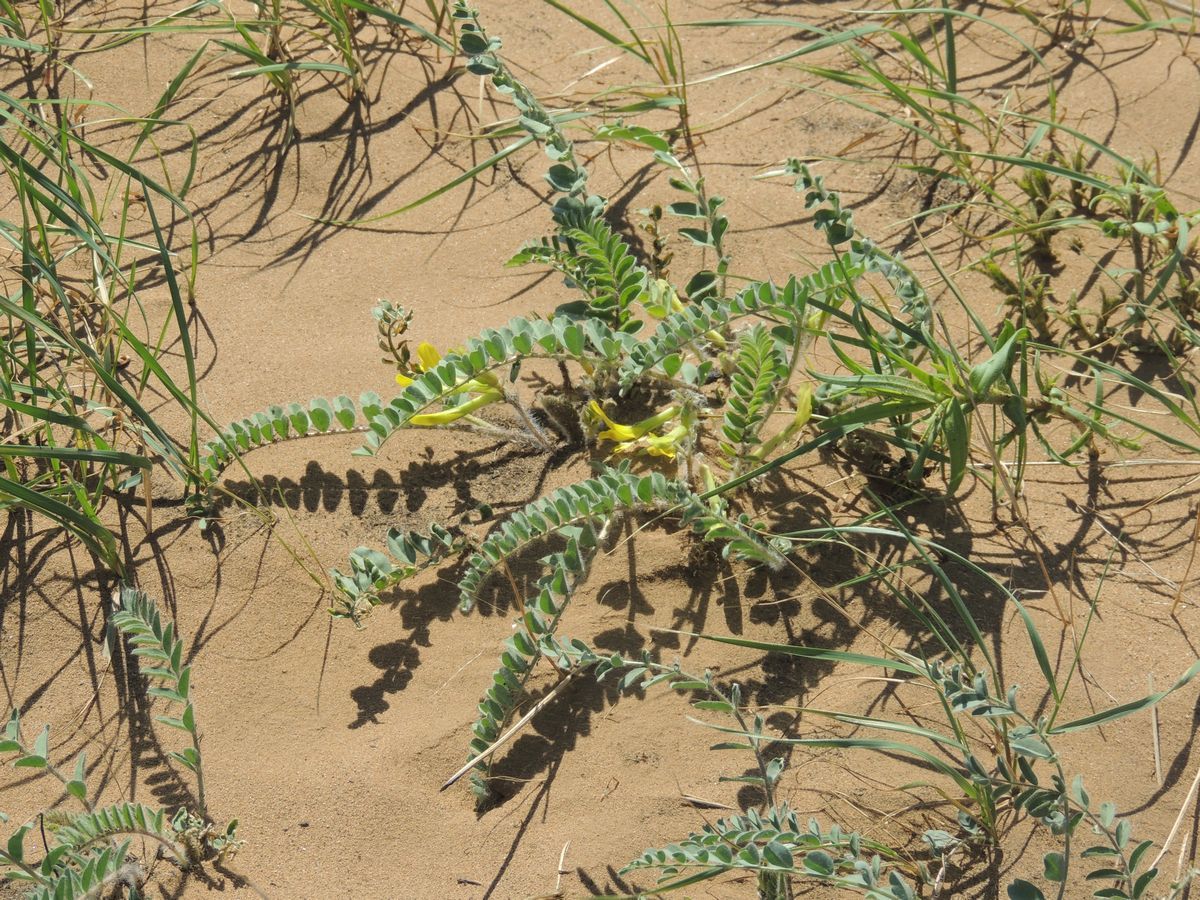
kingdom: Plantae
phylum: Tracheophyta
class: Magnoliopsida
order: Fabales
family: Fabaceae
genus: Astragalus
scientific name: Astragalus longipetalus
